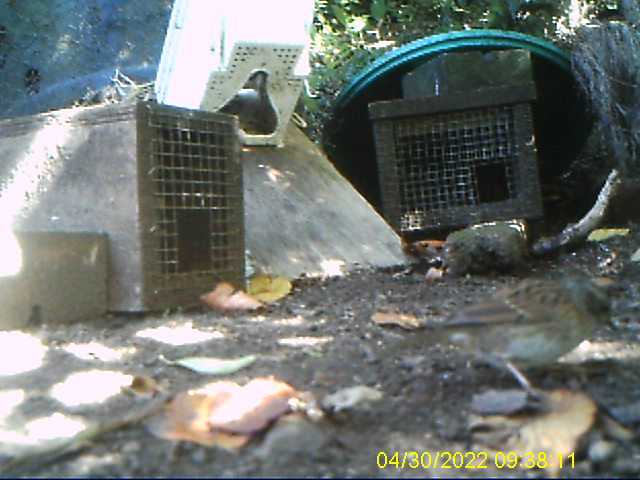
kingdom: Animalia
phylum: Chordata
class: Aves
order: Passeriformes
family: Prunellidae
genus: Prunella
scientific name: Prunella modularis
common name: Dunnock
